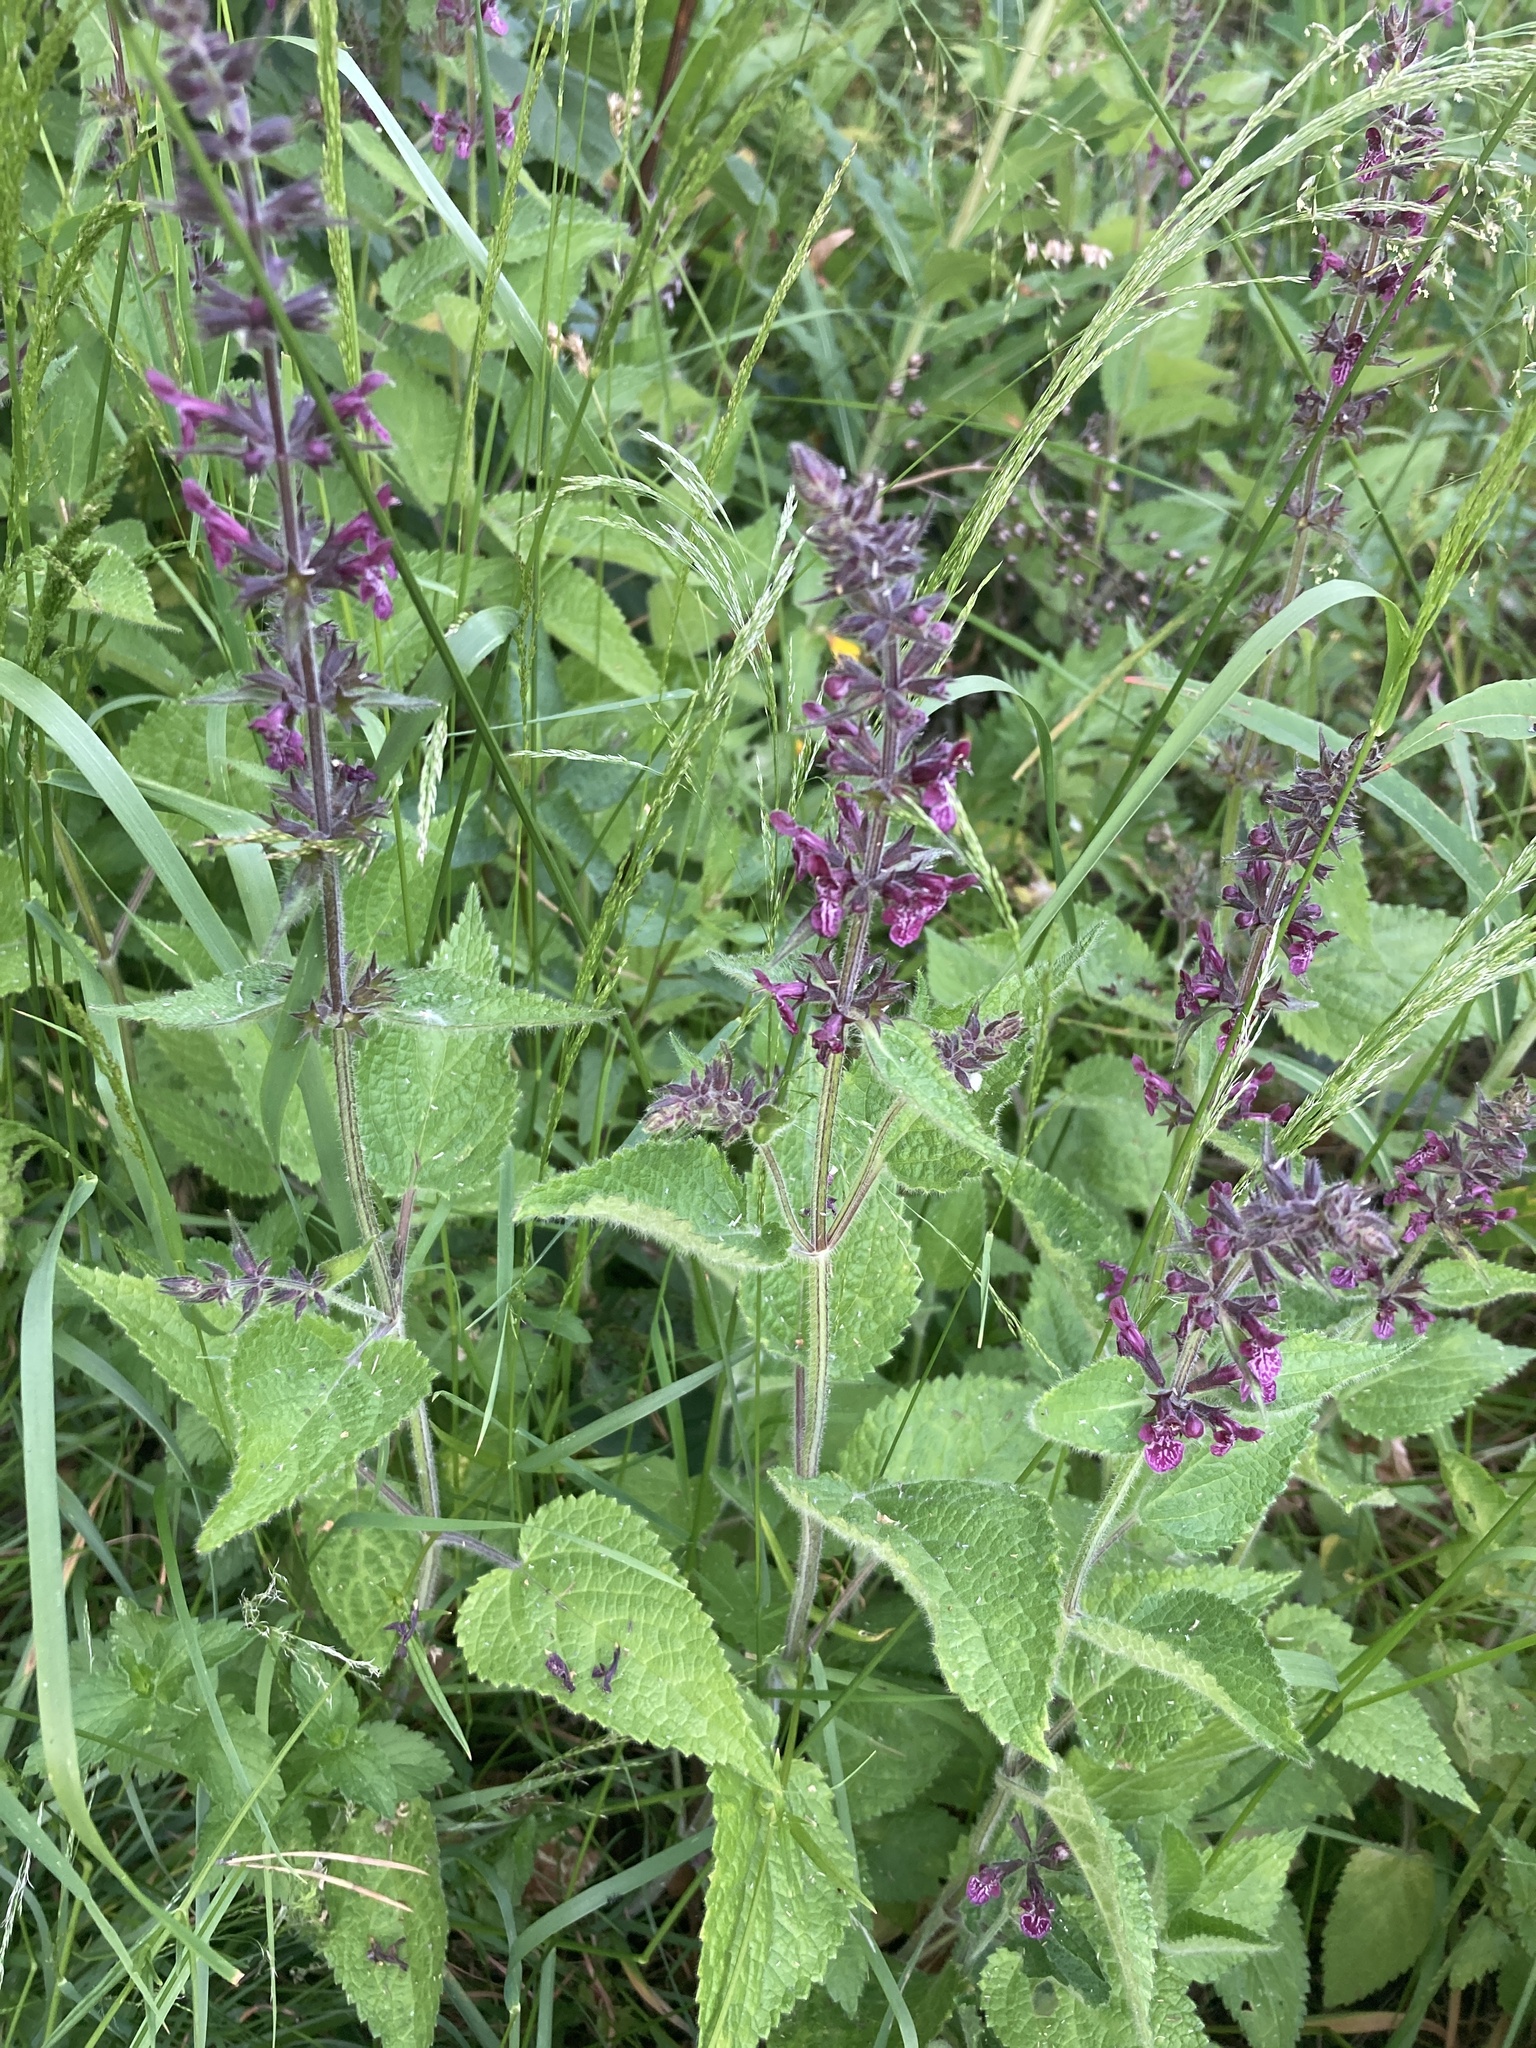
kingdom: Plantae
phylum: Tracheophyta
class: Magnoliopsida
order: Lamiales
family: Lamiaceae
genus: Stachys
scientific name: Stachys sylvatica
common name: Hedge woundwort
